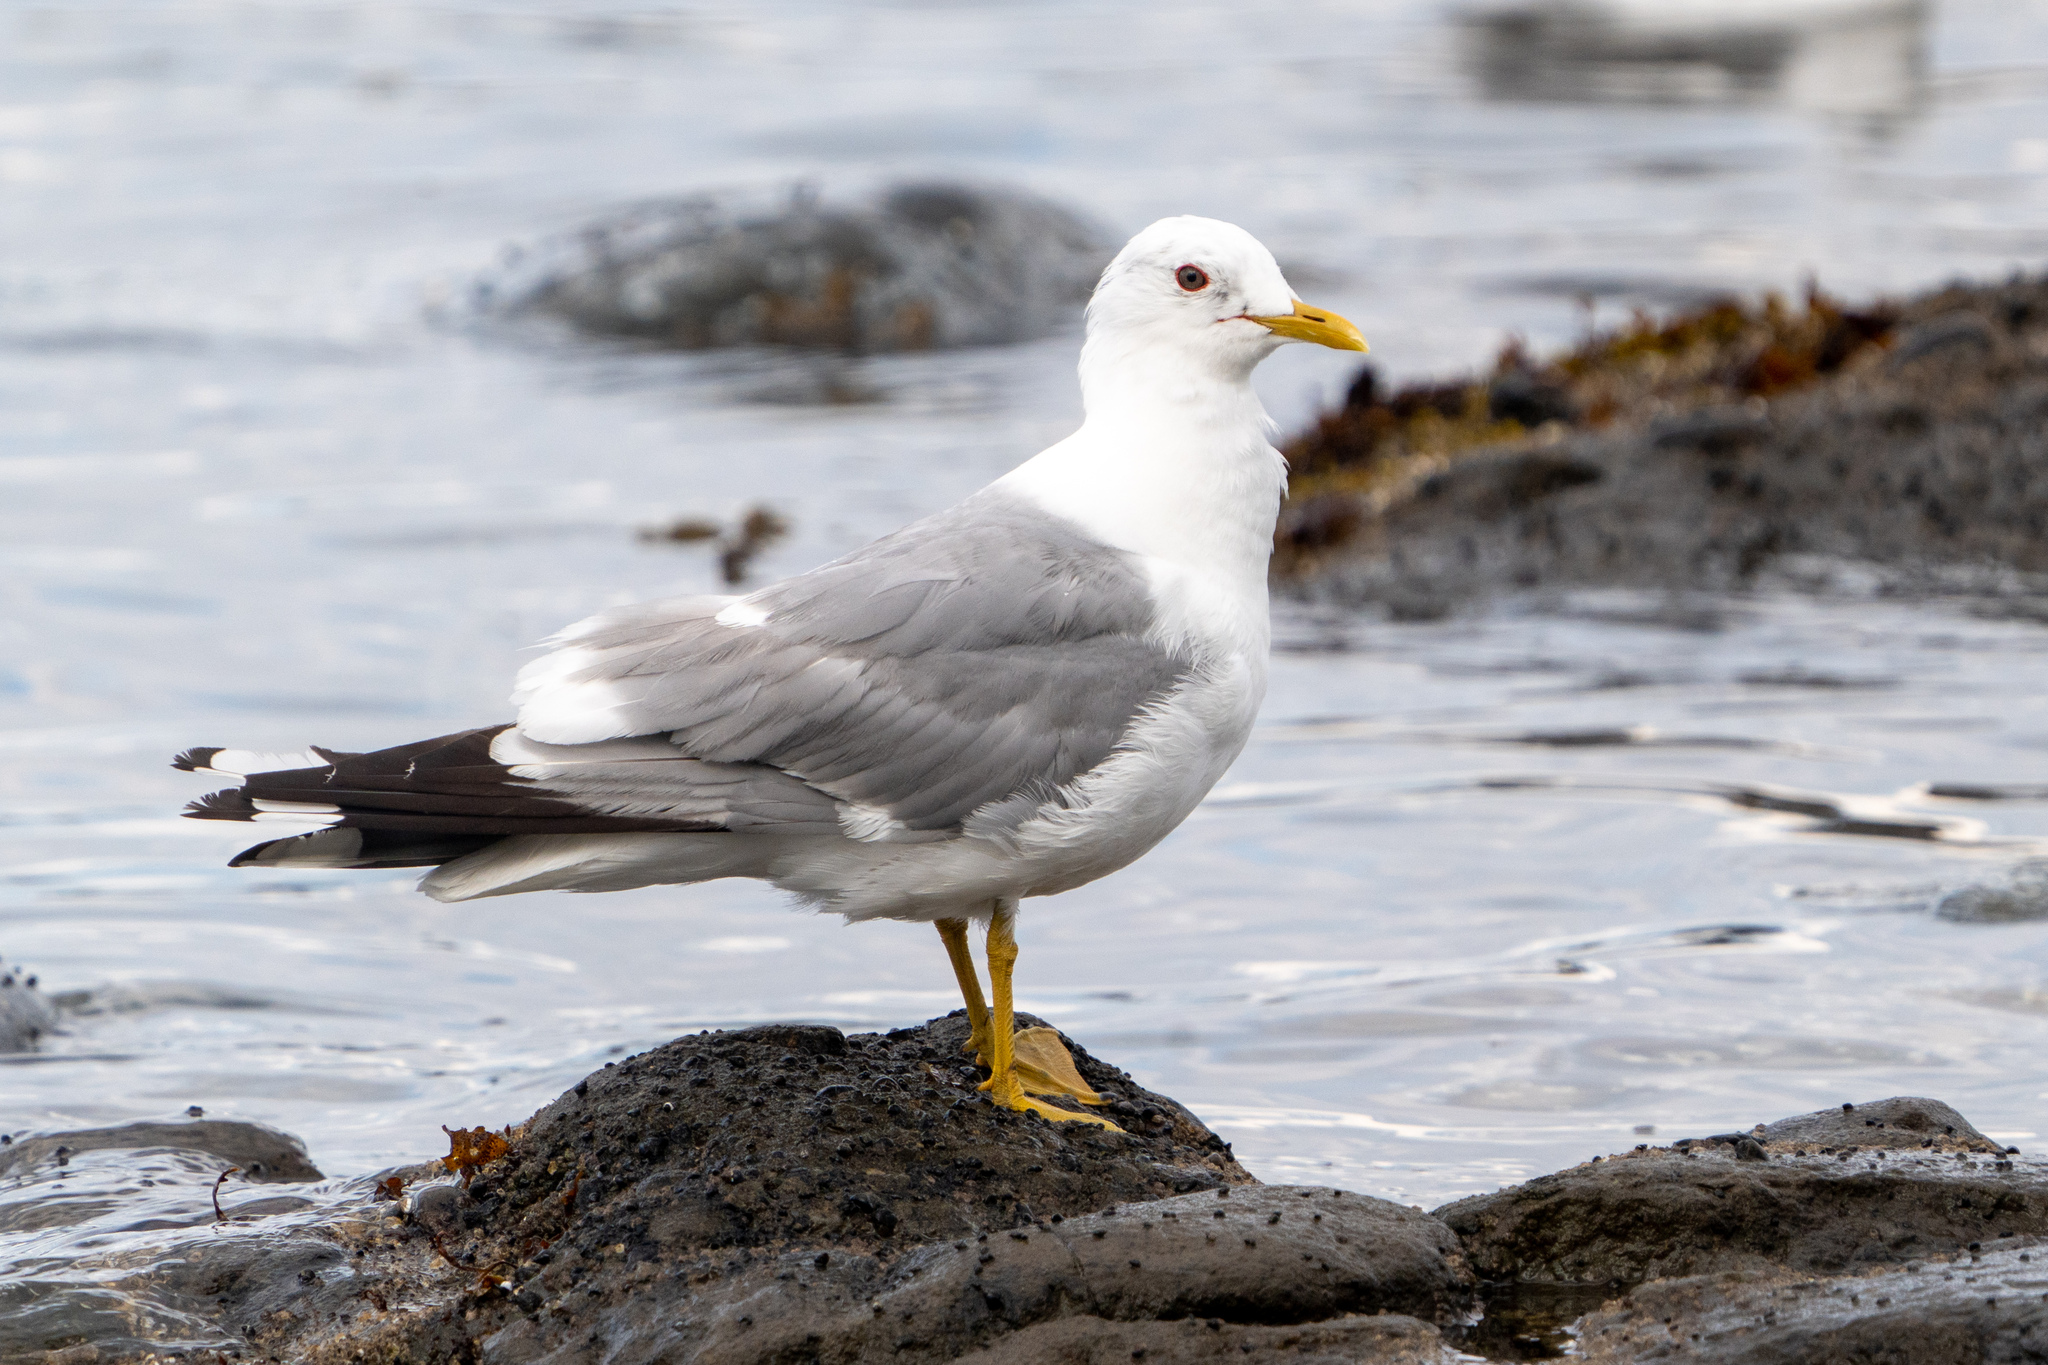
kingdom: Animalia
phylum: Chordata
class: Aves
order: Charadriiformes
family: Laridae
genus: Larus
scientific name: Larus brachyrhynchus
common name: Short-billed gull
